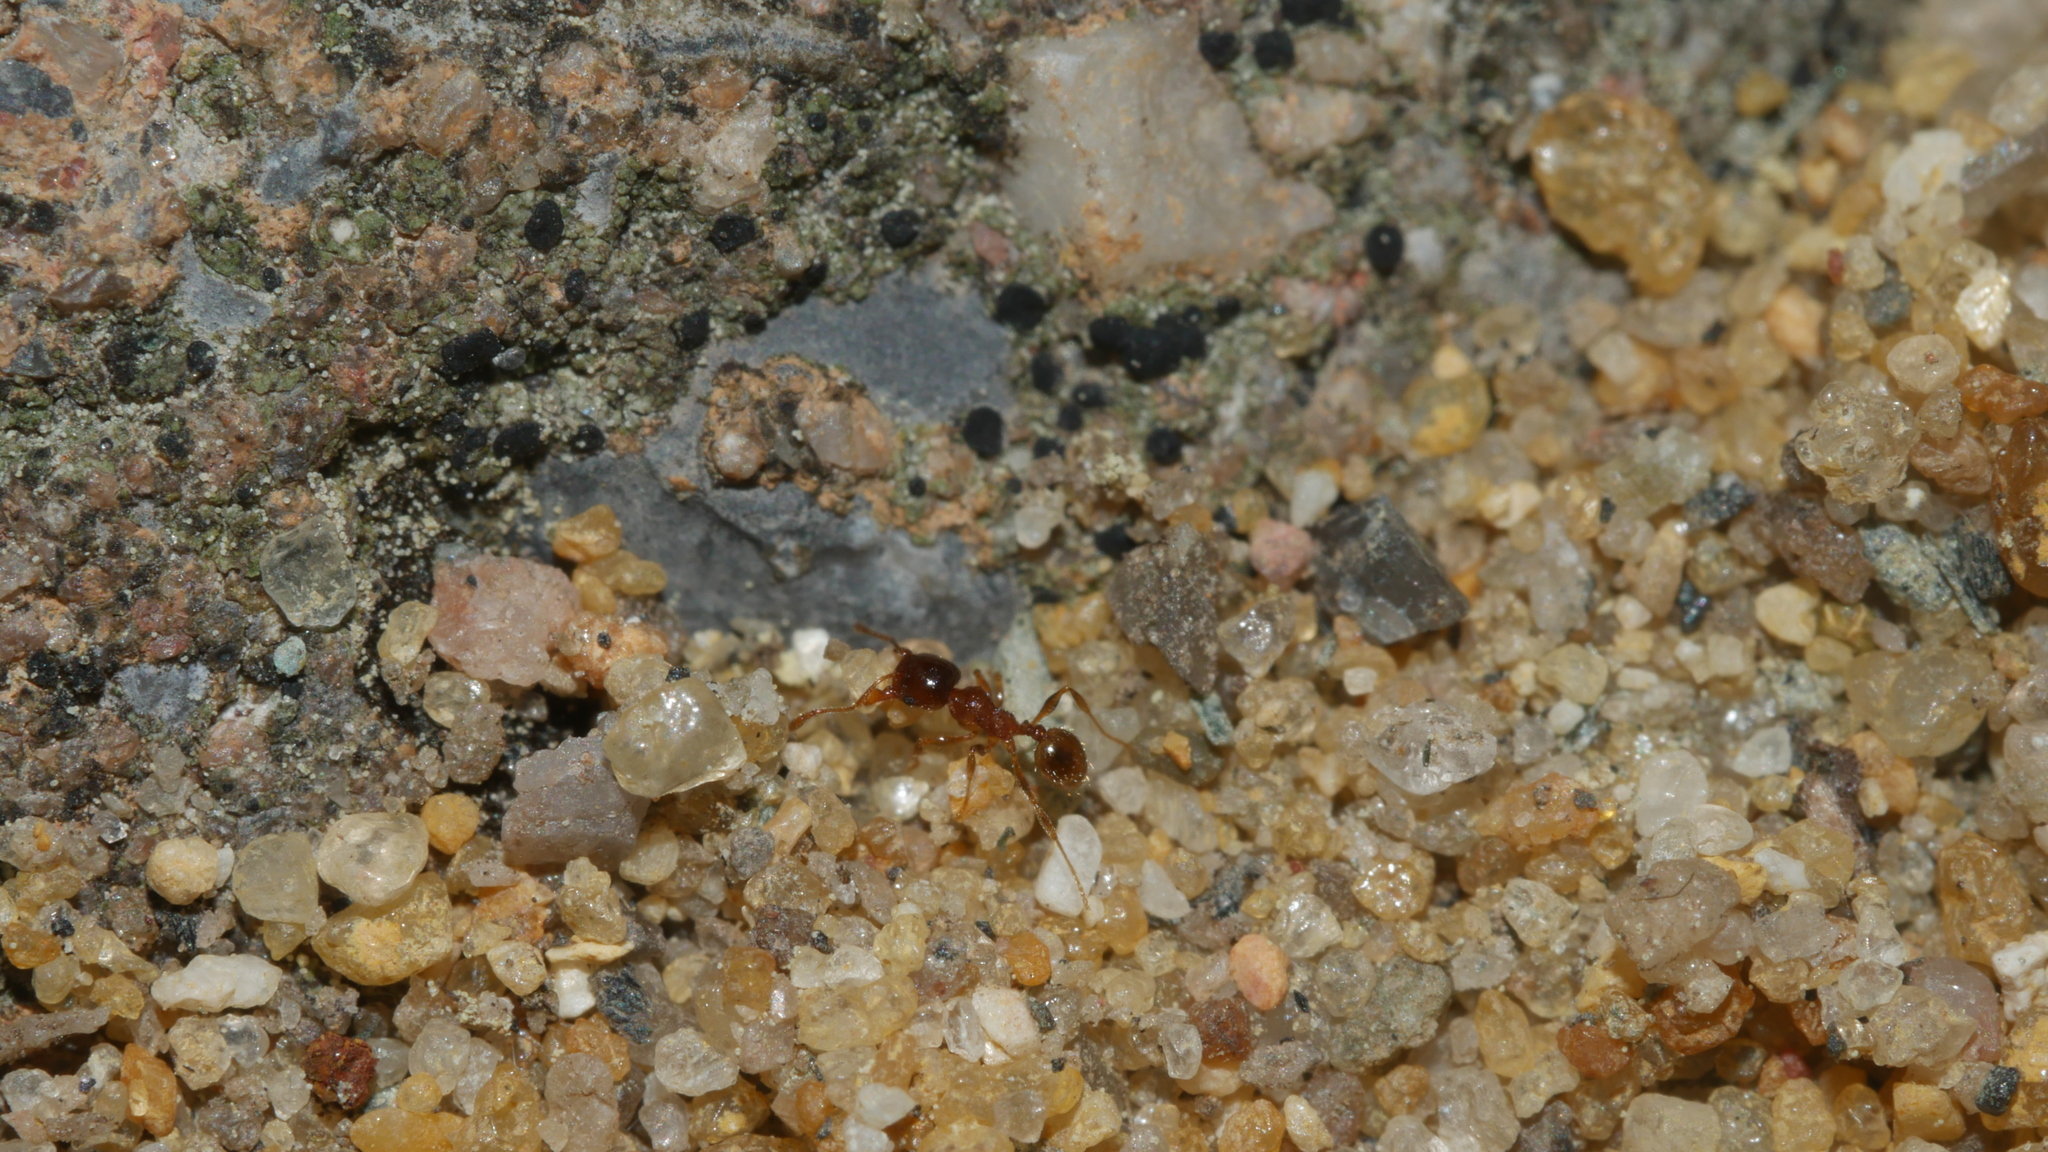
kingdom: Animalia
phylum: Arthropoda
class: Insecta
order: Hymenoptera
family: Formicidae
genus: Pheidole
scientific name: Pheidole bicarinata
